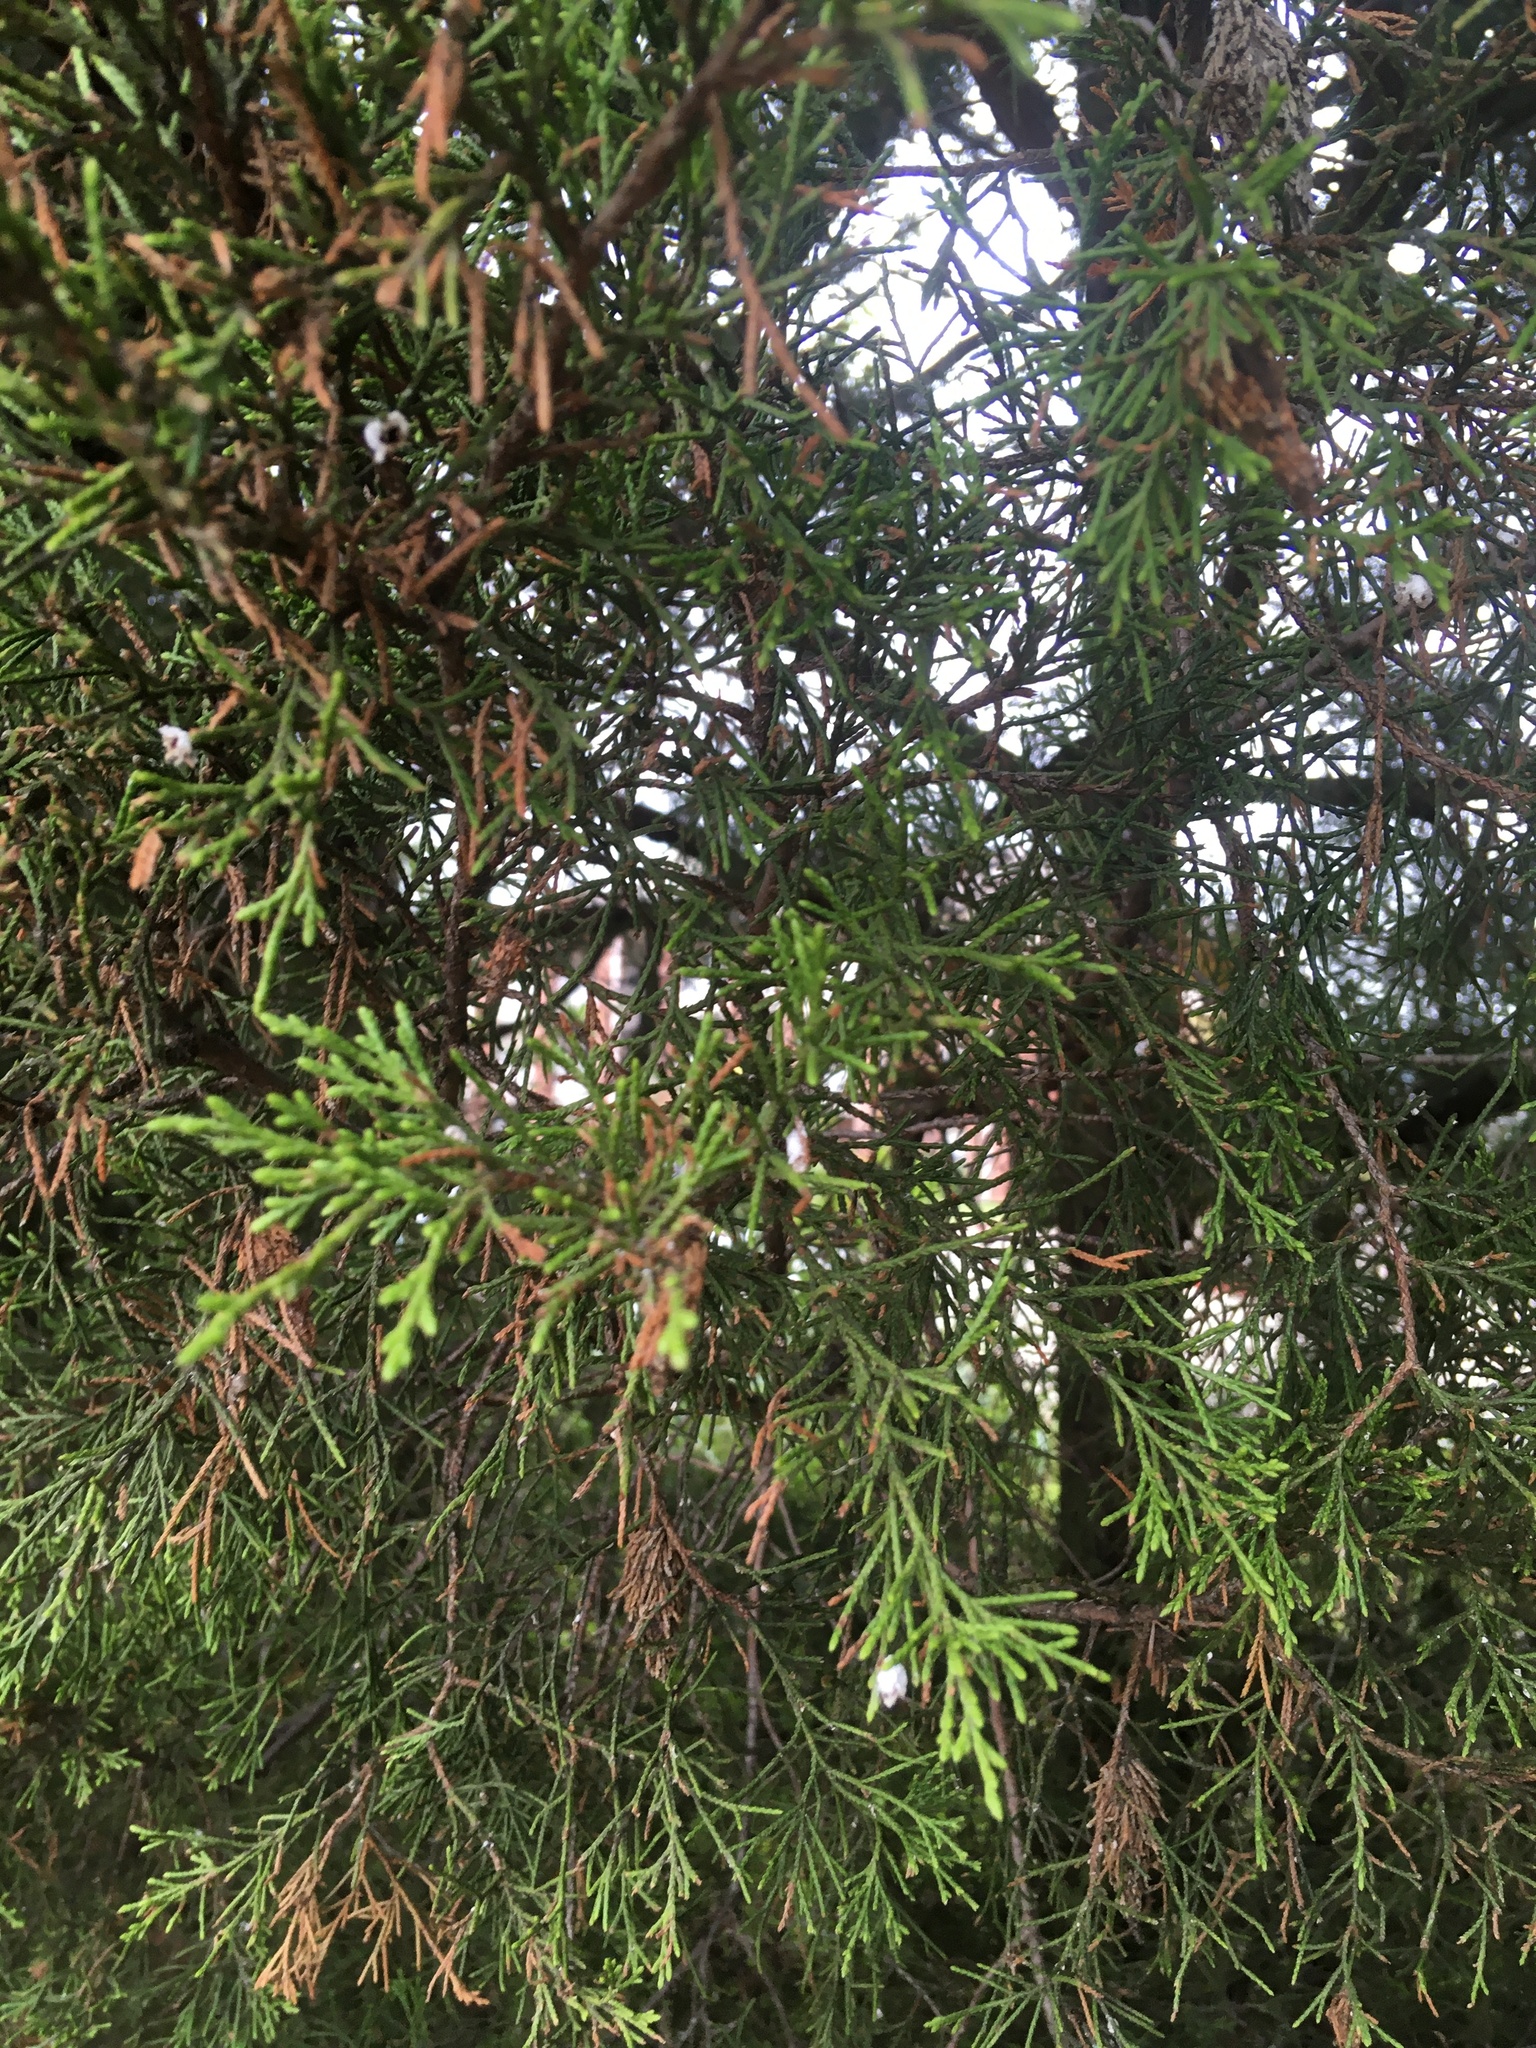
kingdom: Plantae
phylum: Tracheophyta
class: Pinopsida
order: Pinales
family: Cupressaceae
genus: Juniperus
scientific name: Juniperus virginiana
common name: Red juniper
